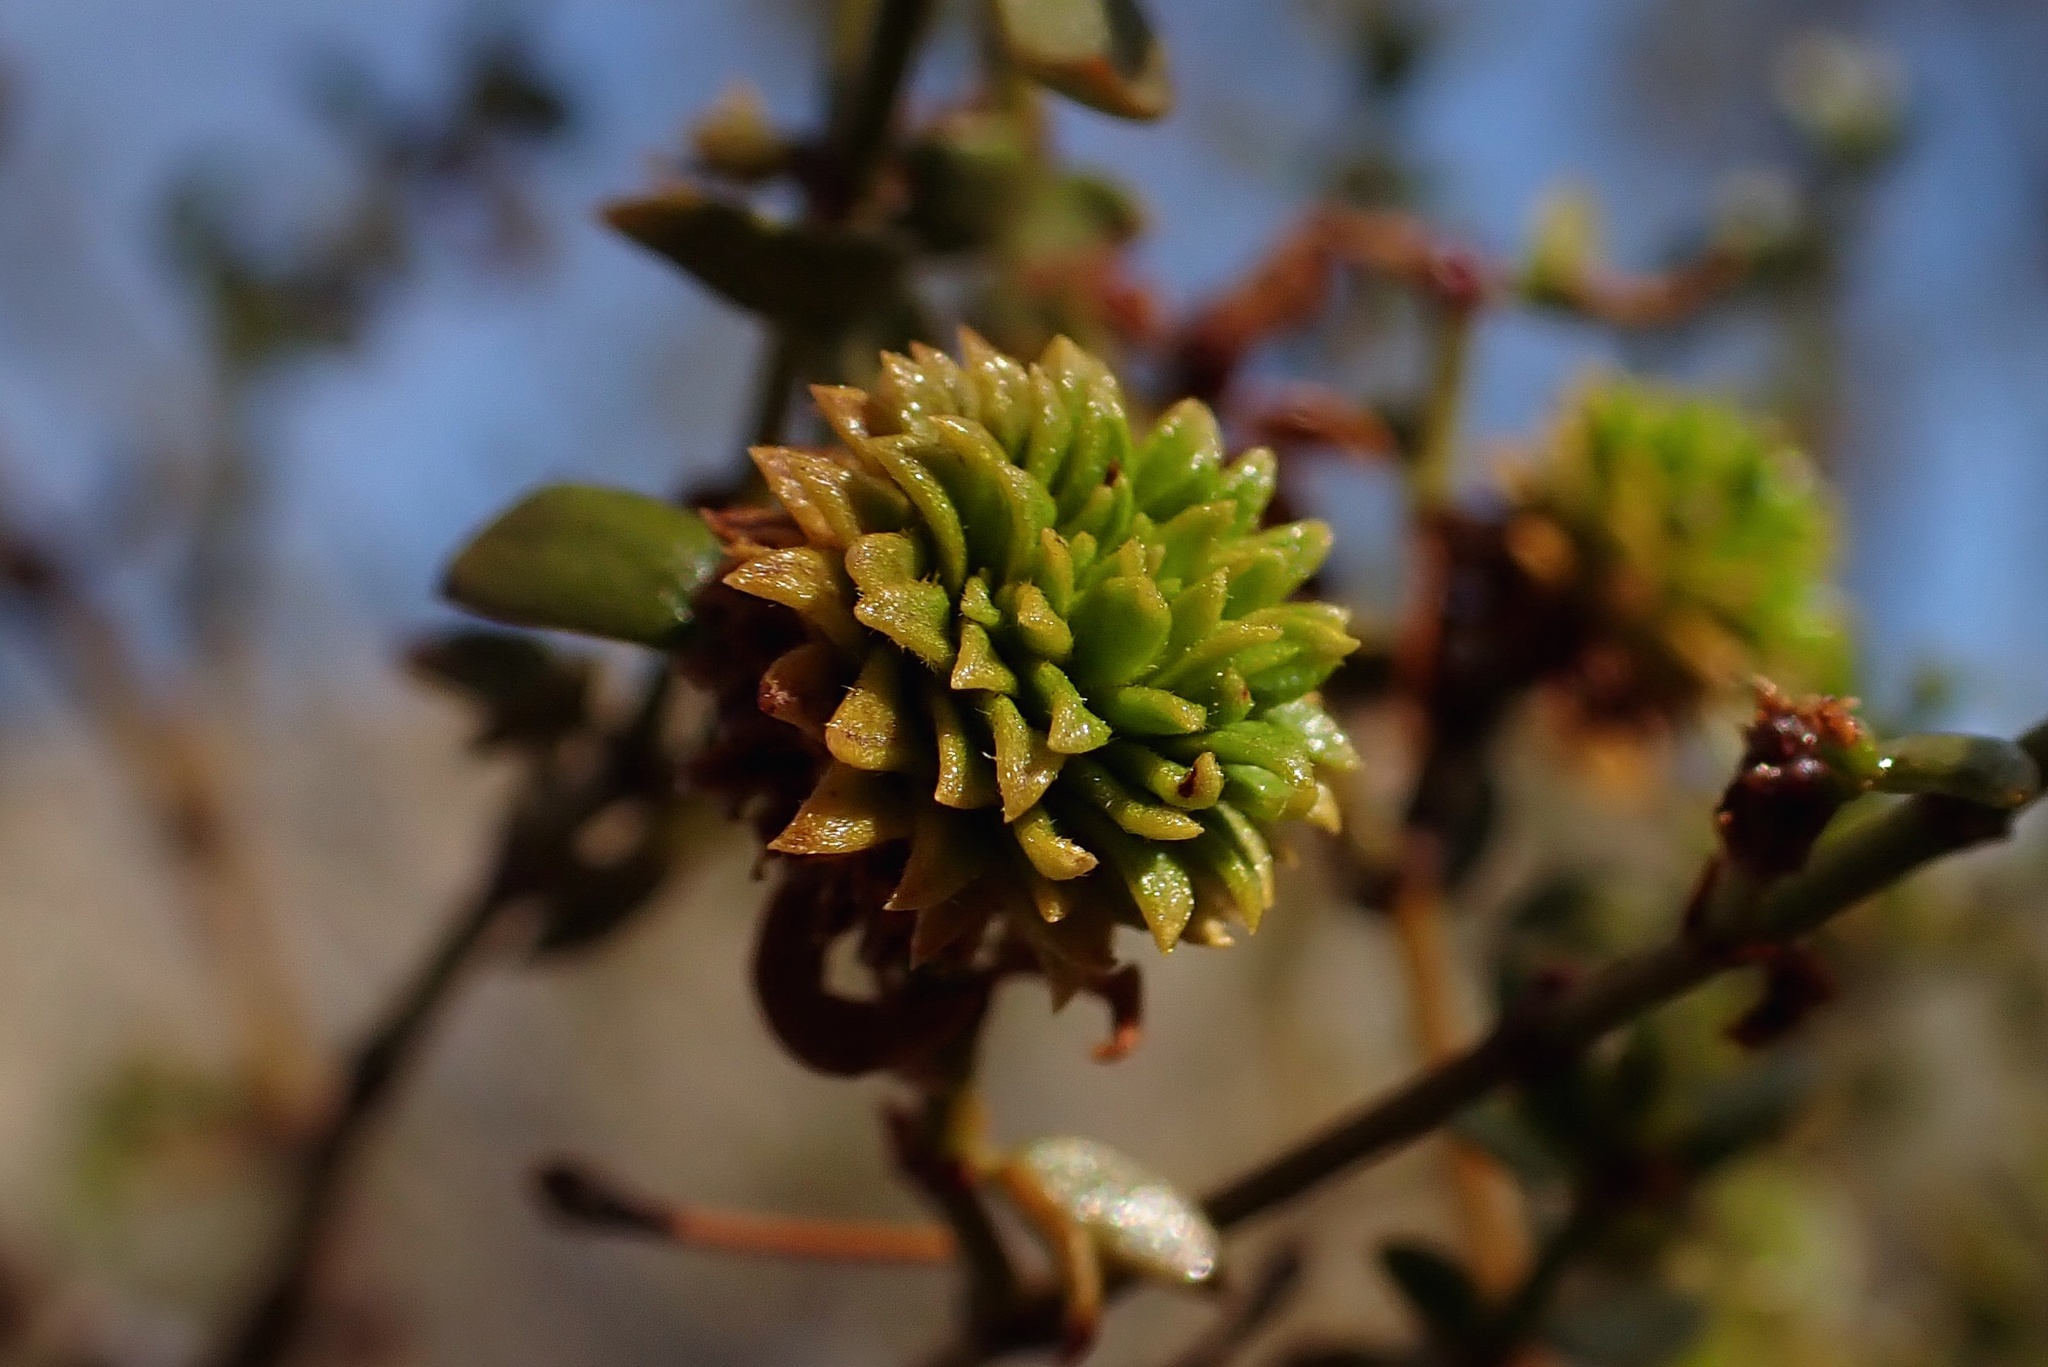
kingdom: Animalia
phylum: Arthropoda
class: Insecta
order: Diptera
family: Cecidomyiidae
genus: Asphondylia
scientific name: Asphondylia foliosa
